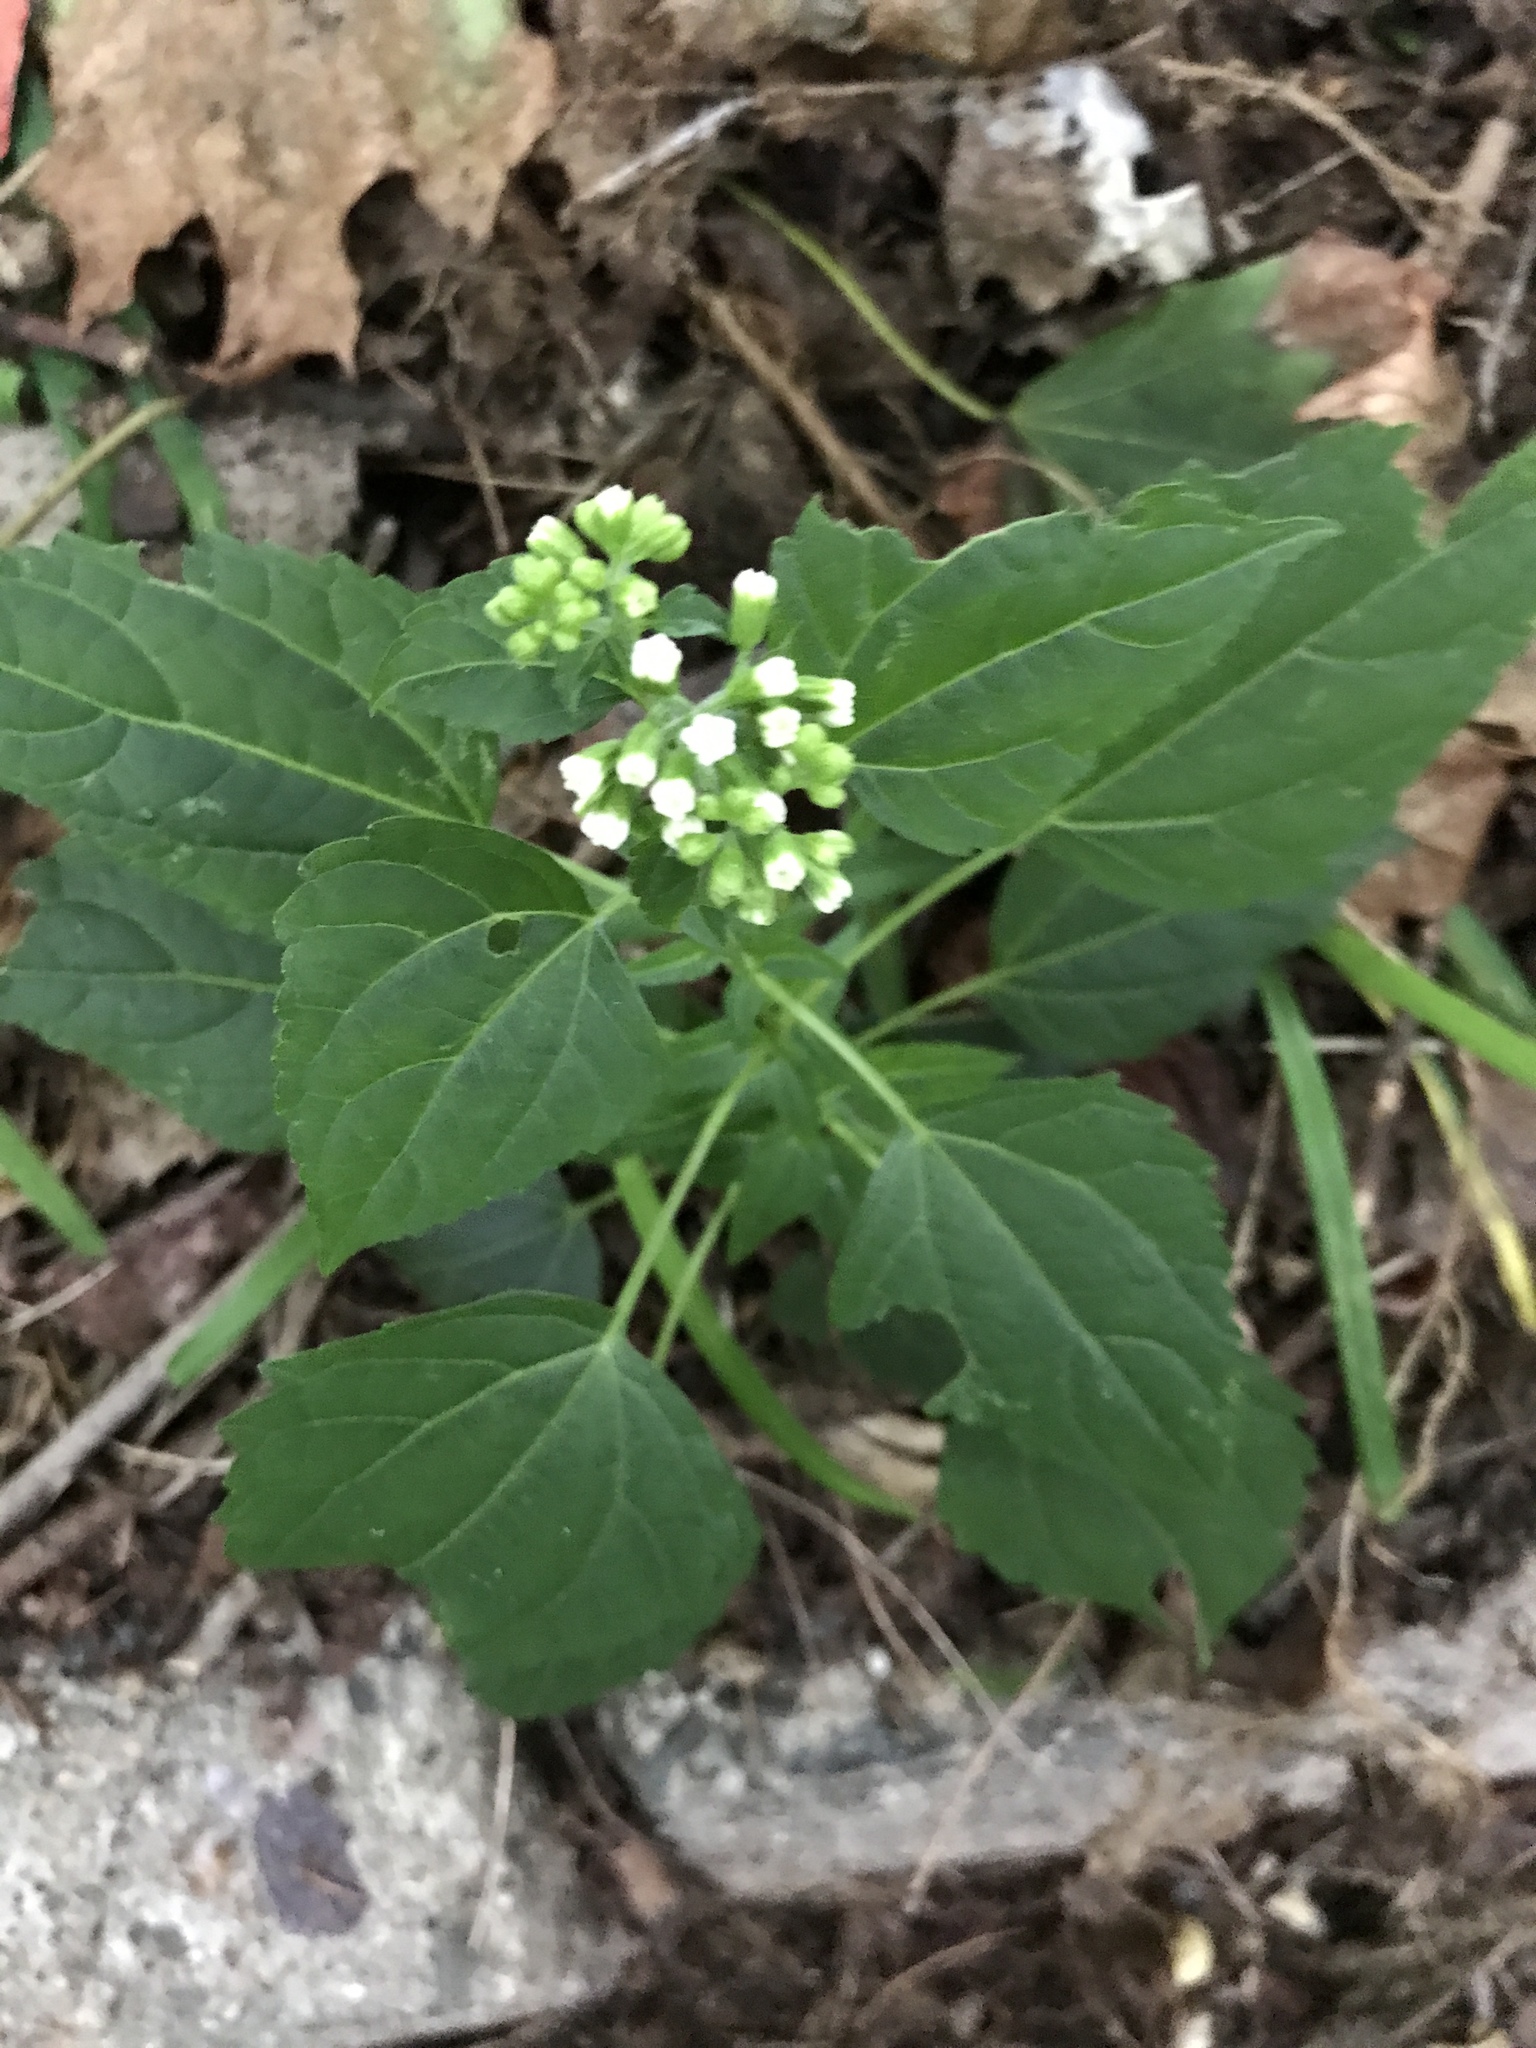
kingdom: Plantae
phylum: Tracheophyta
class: Magnoliopsida
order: Asterales
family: Asteraceae
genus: Ageratina
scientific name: Ageratina altissima
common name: White snakeroot
